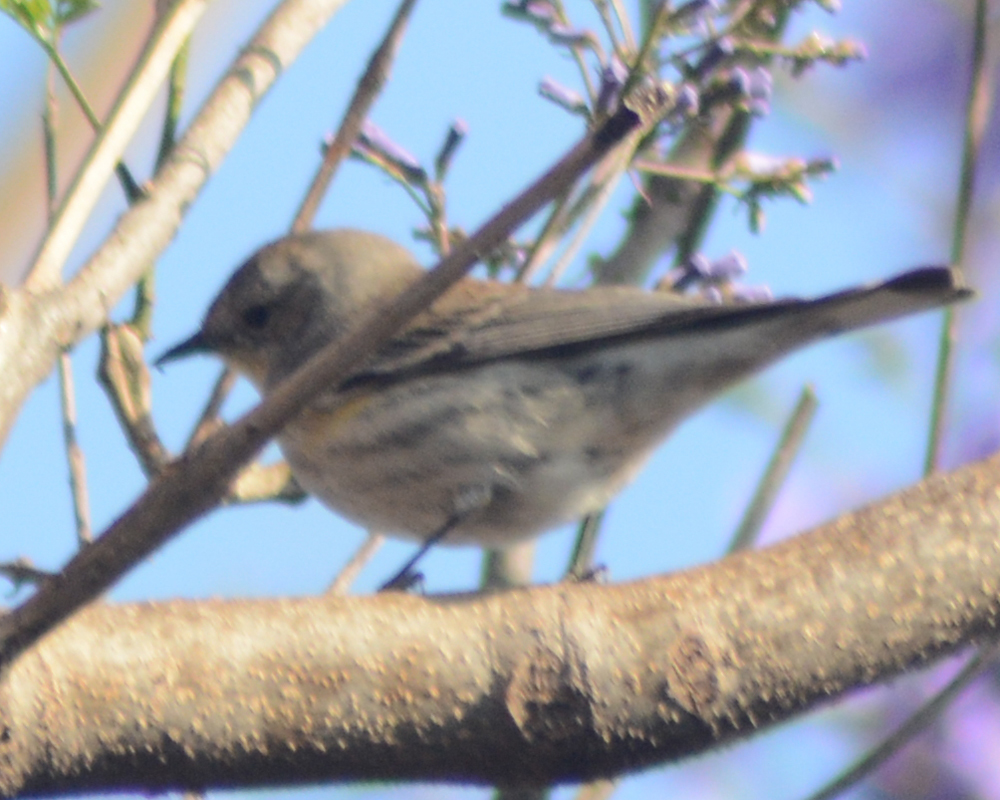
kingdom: Animalia
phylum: Chordata
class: Aves
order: Passeriformes
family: Parulidae
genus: Setophaga
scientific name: Setophaga coronata
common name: Myrtle warbler
